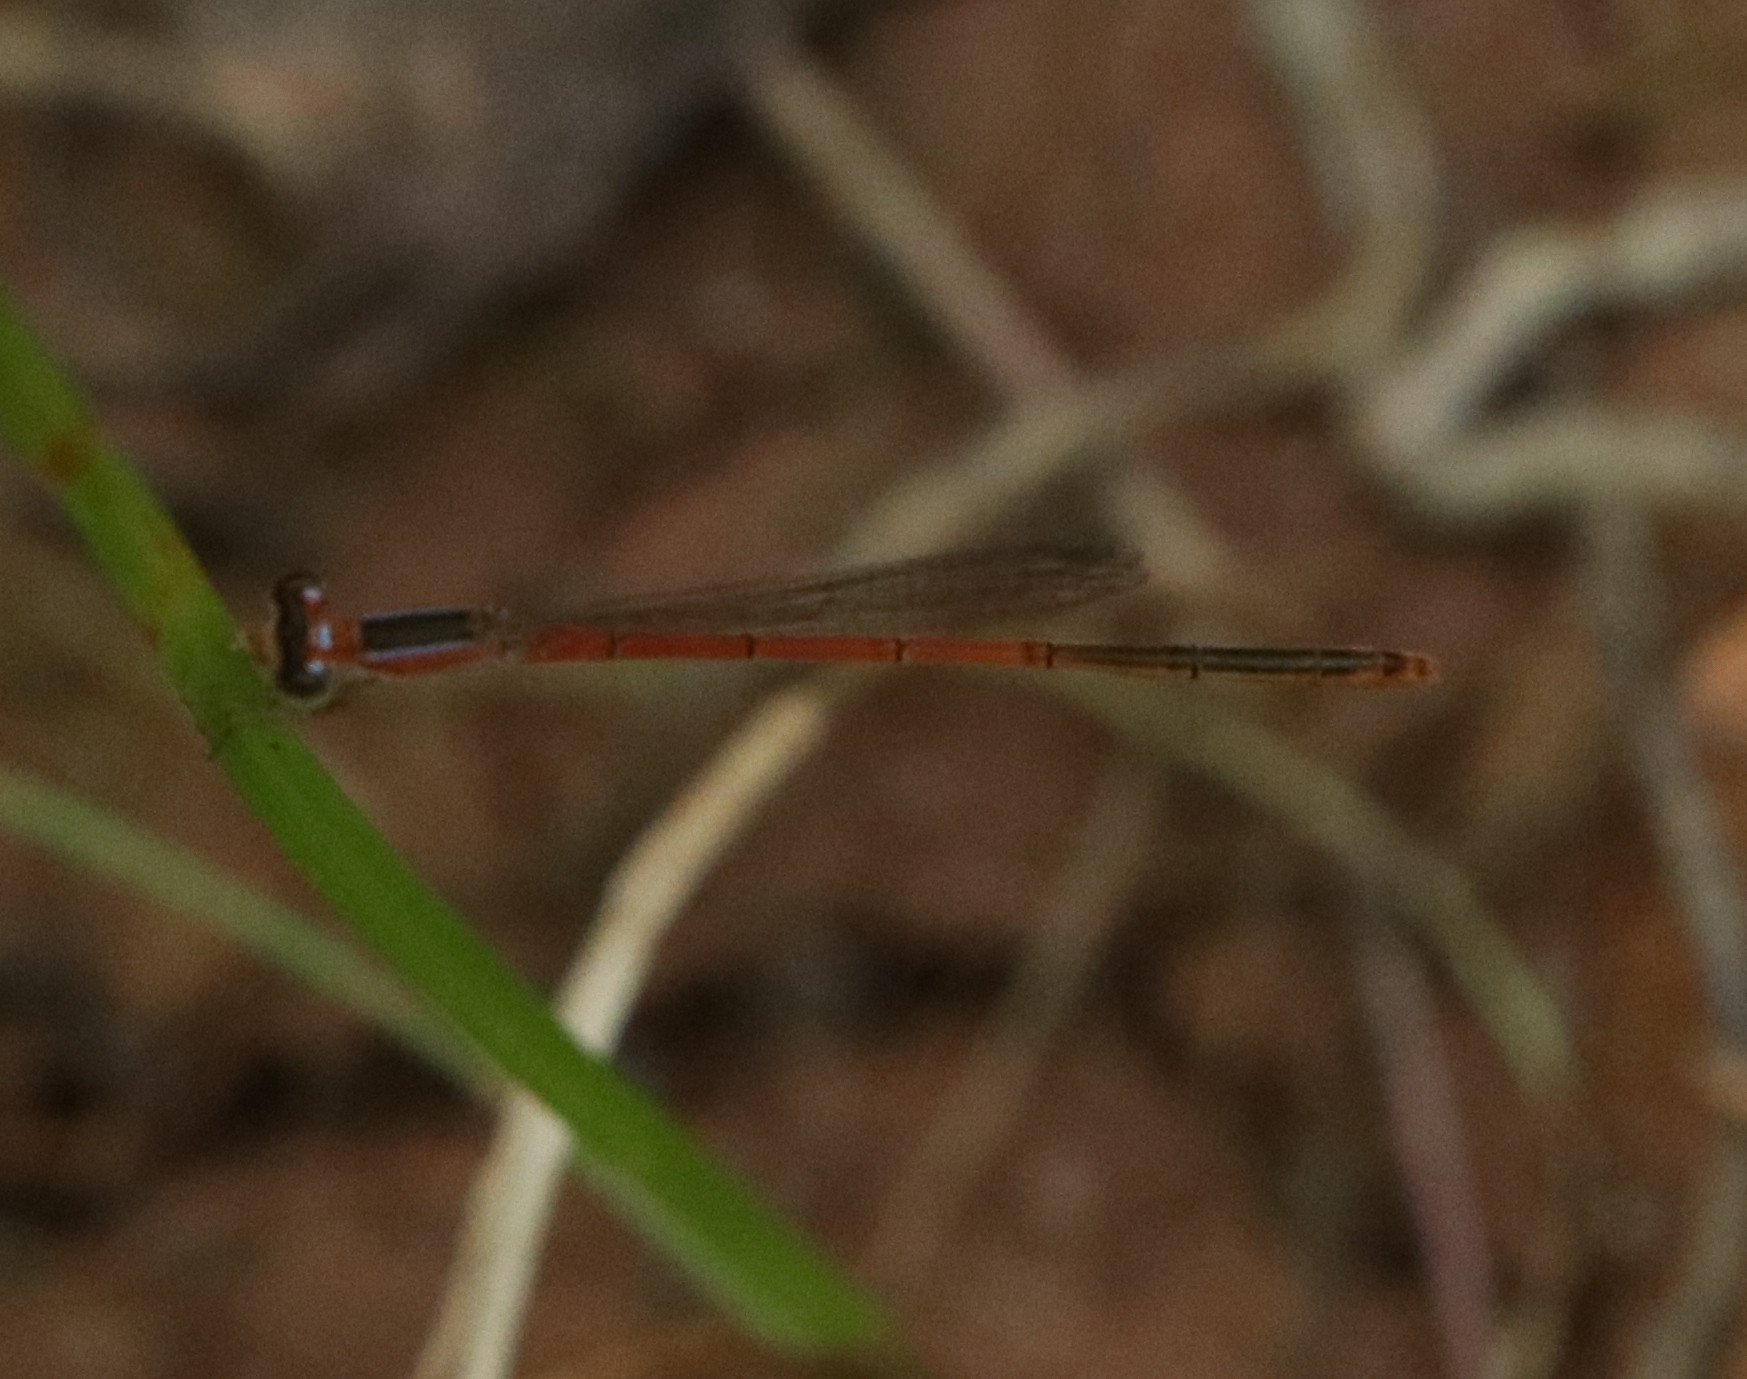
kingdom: Animalia
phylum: Arthropoda
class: Insecta
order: Odonata
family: Coenagrionidae
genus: Agriocnemis
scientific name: Agriocnemis pygmaea
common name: Pygmy wisp
